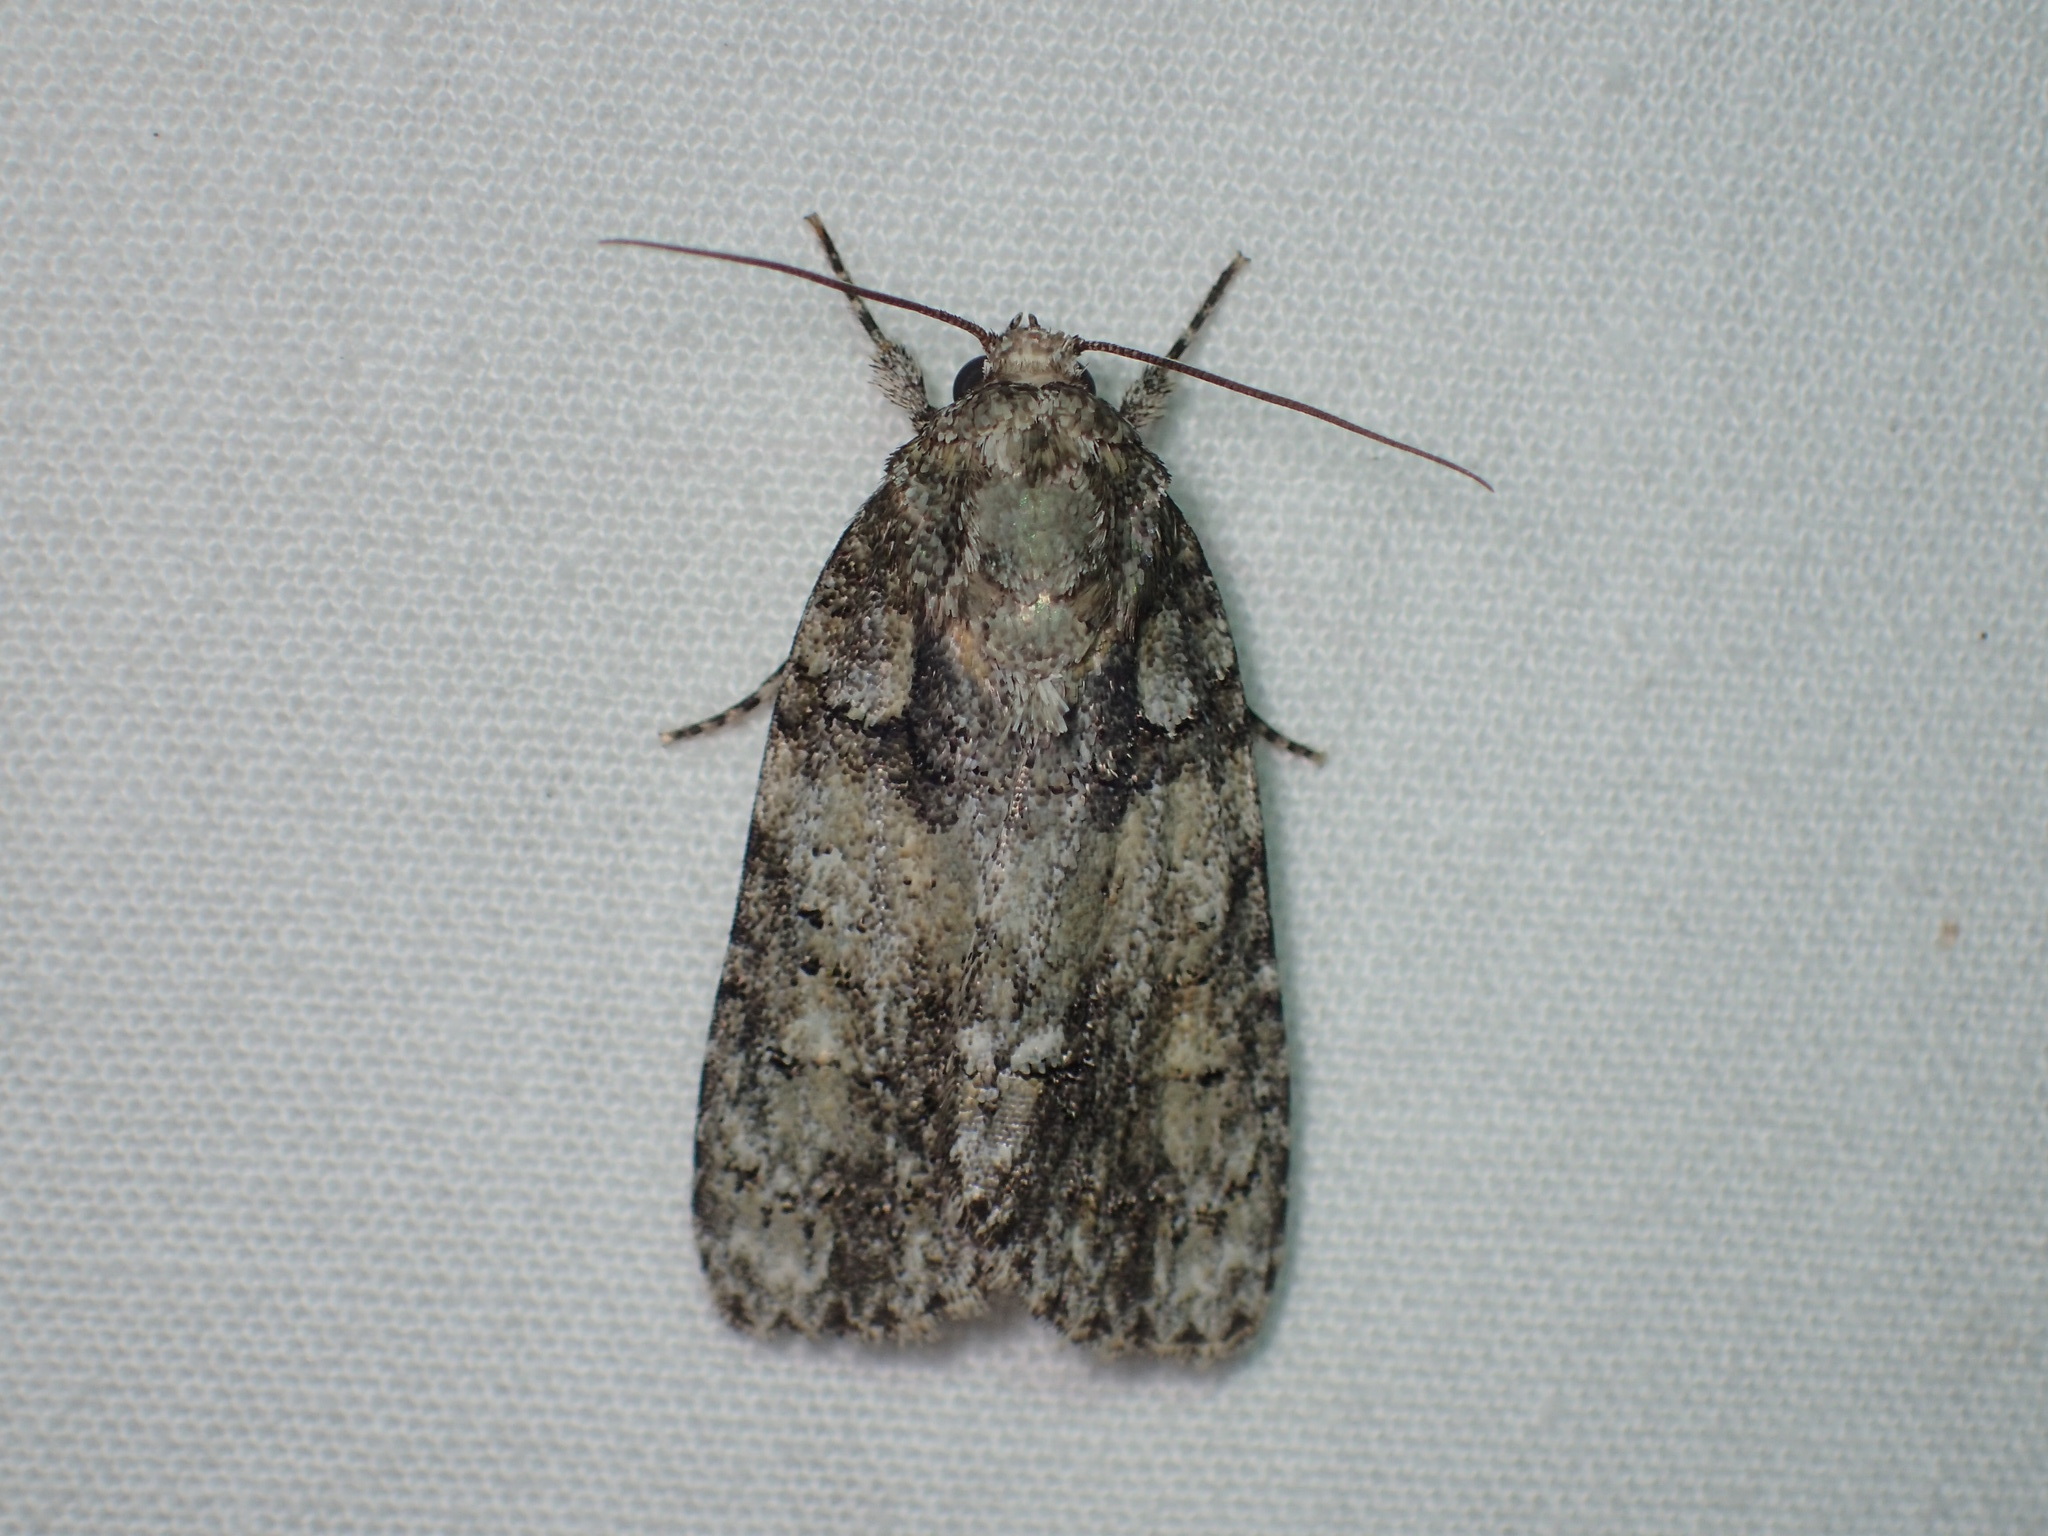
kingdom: Animalia
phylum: Arthropoda
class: Insecta
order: Lepidoptera
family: Noctuidae
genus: Acronicta
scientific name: Acronicta ovata
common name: Epauleted oak dagger
